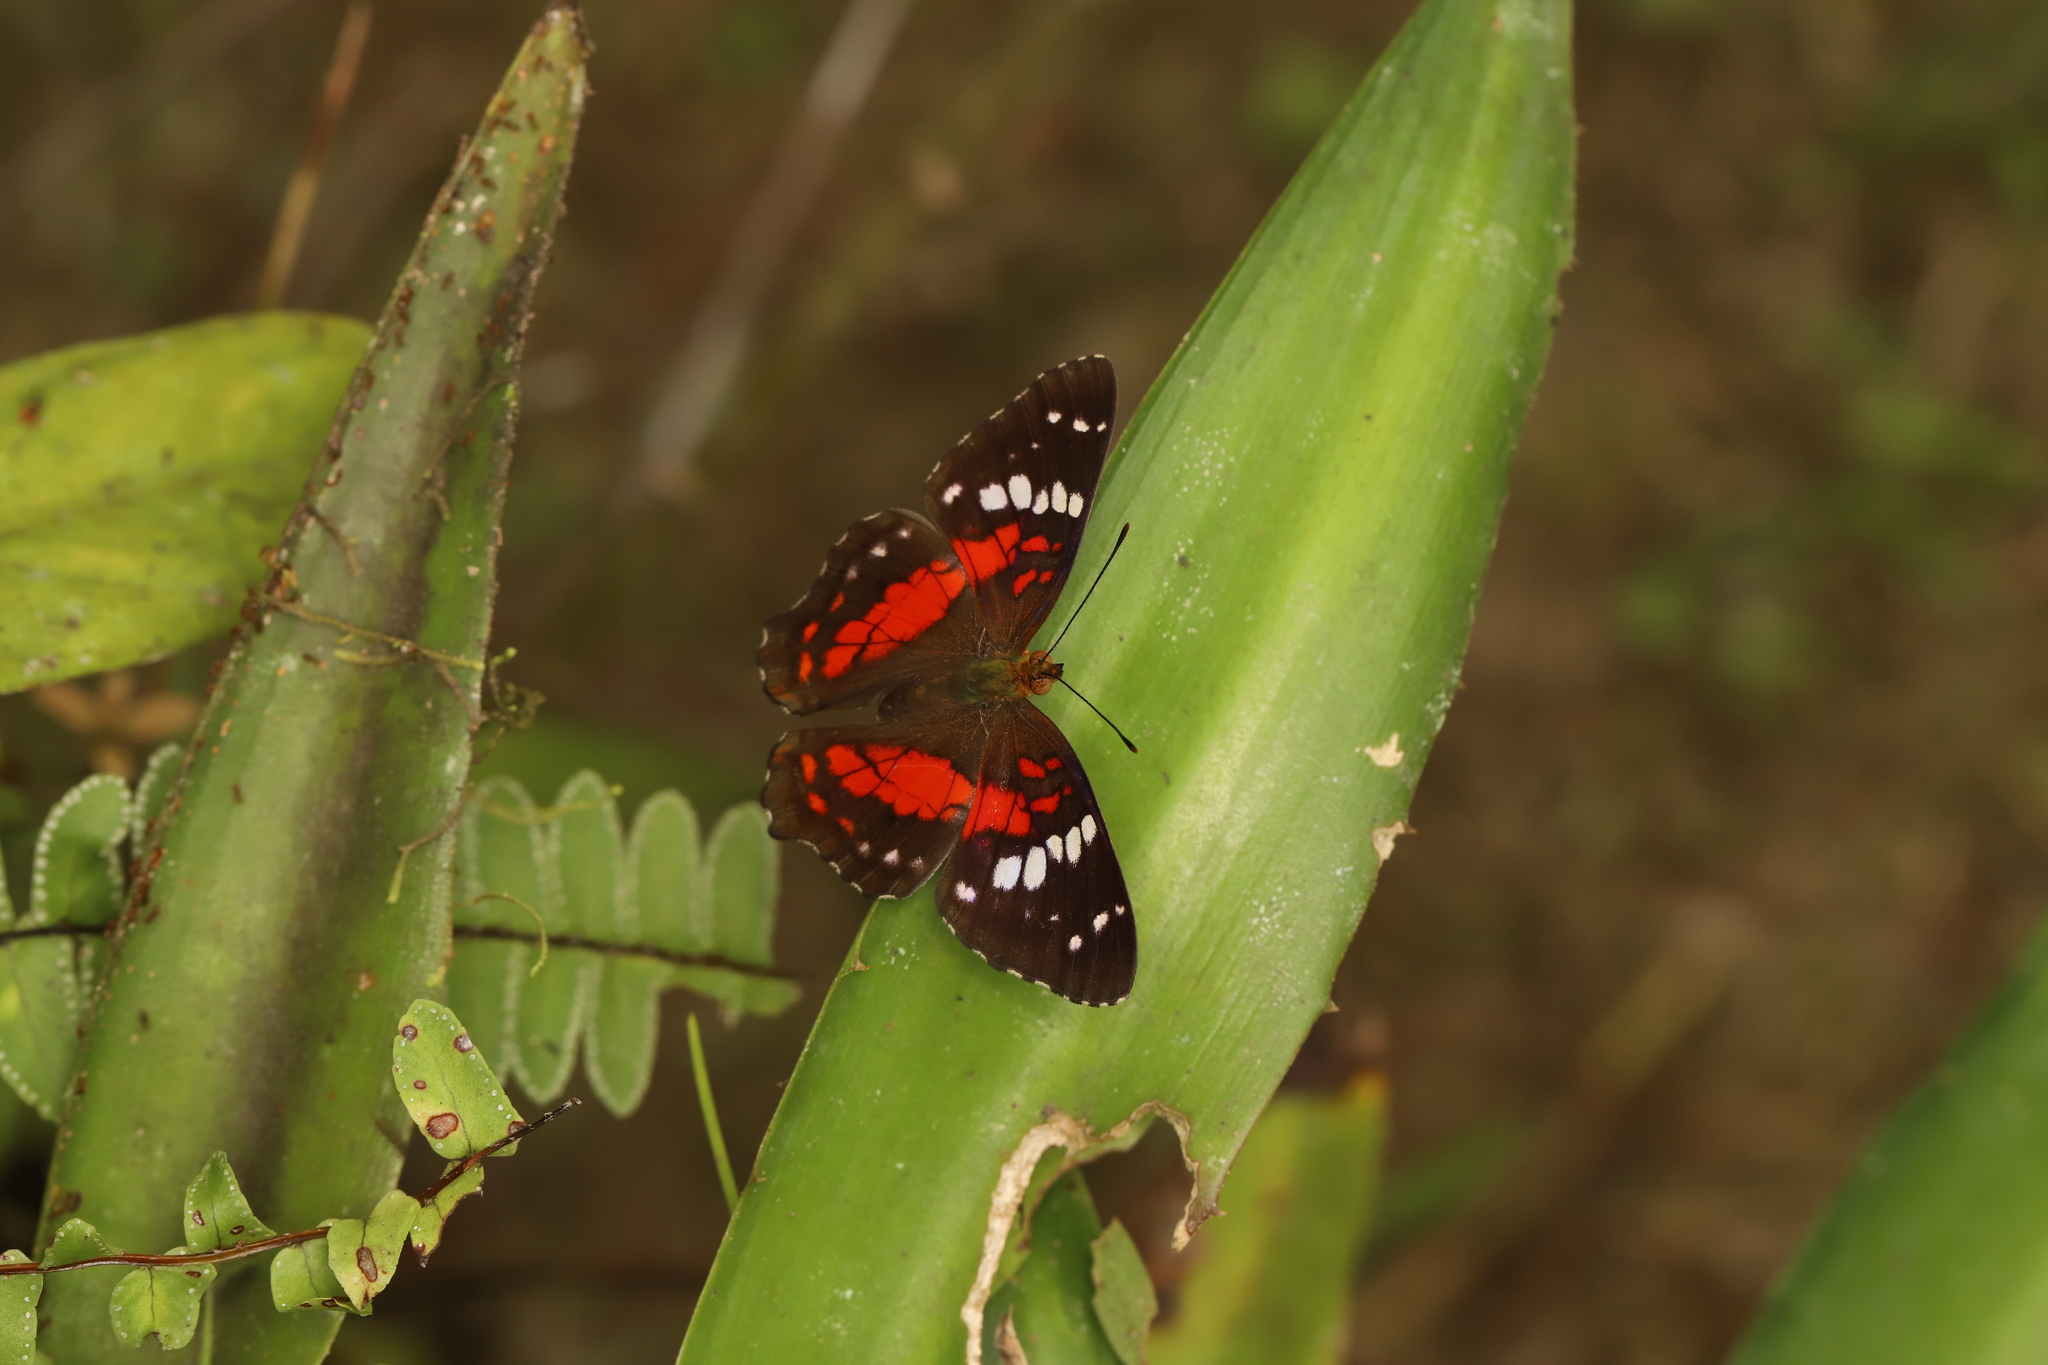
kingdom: Animalia
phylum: Arthropoda
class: Insecta
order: Lepidoptera
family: Nymphalidae
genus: Anartia
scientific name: Anartia amathea
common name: Red peacock
